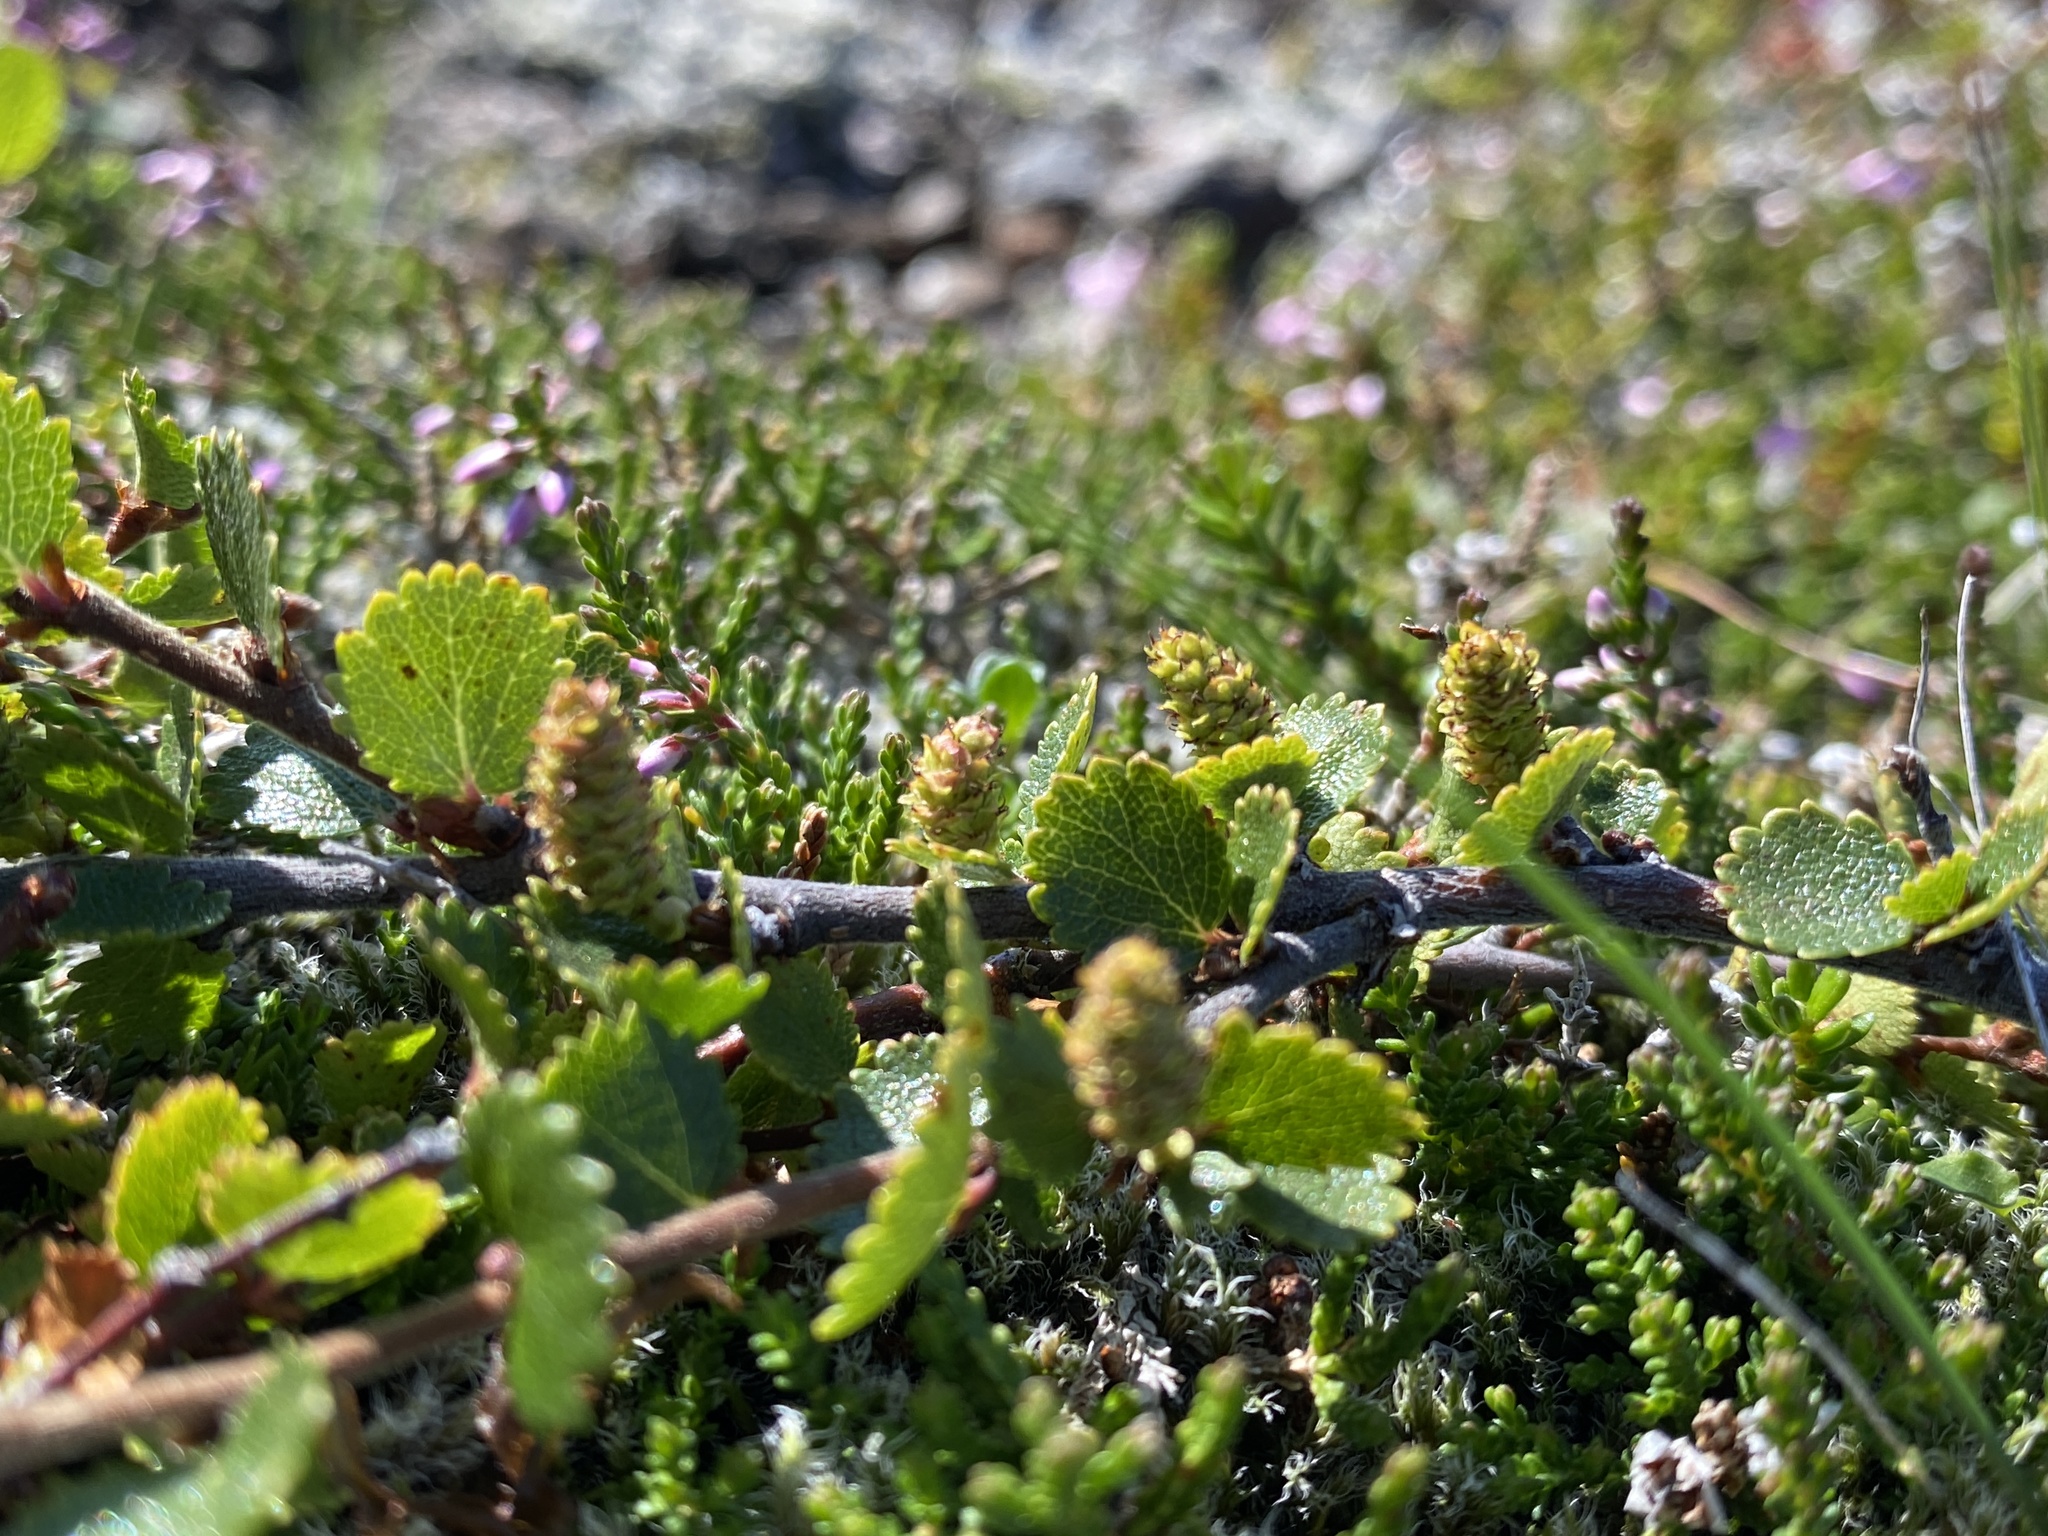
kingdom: Plantae
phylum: Tracheophyta
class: Magnoliopsida
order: Fagales
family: Betulaceae
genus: Betula
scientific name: Betula nana
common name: Arctic dwarf birch
